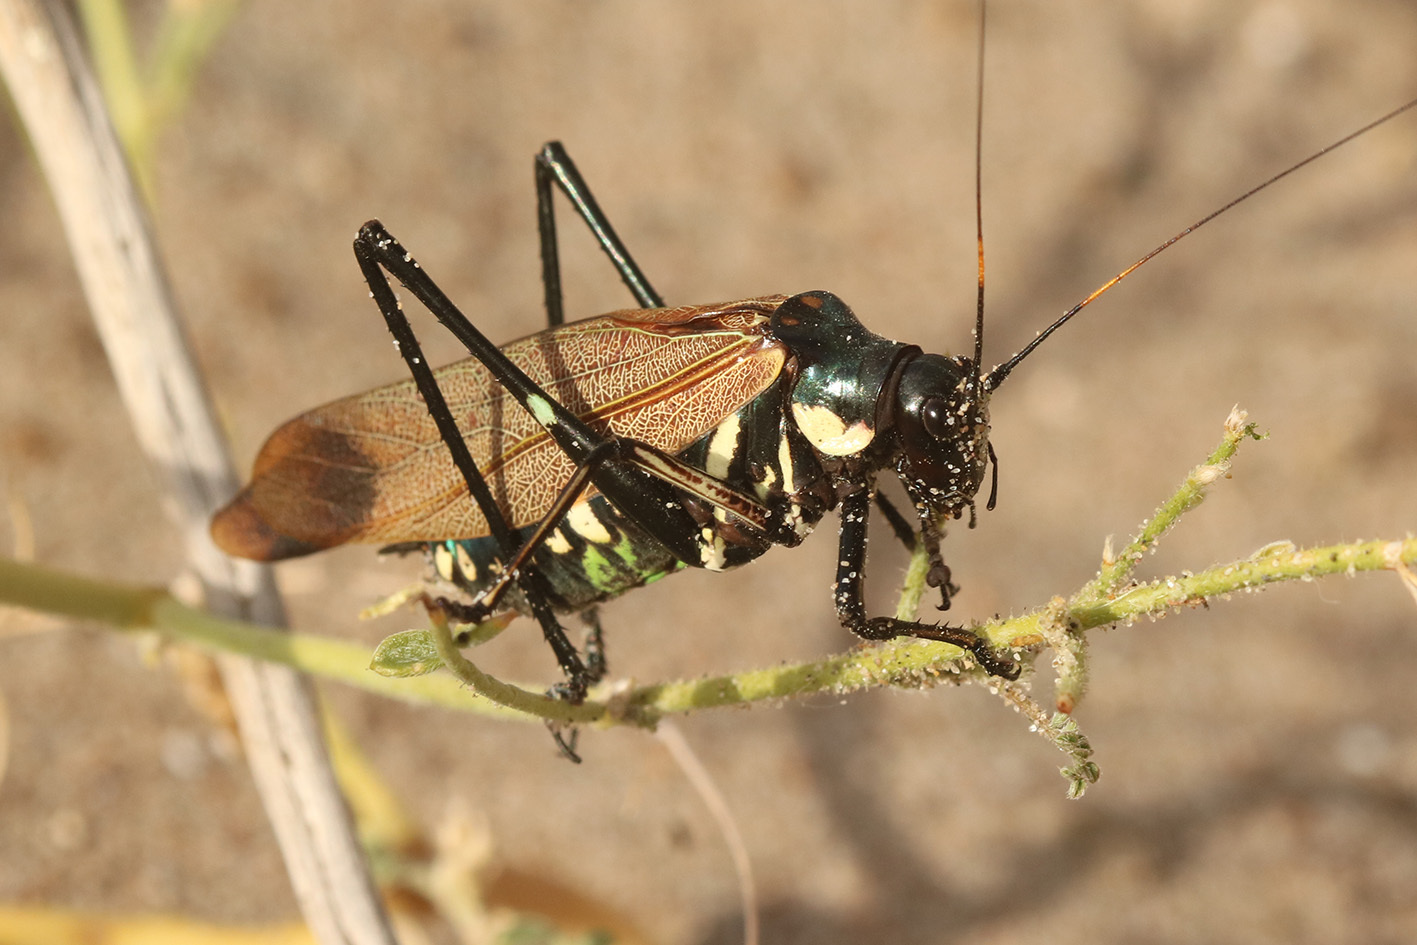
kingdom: Animalia
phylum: Arthropoda
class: Insecta
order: Orthoptera
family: Tettigoniidae
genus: Scaphura
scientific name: Scaphura elegans
